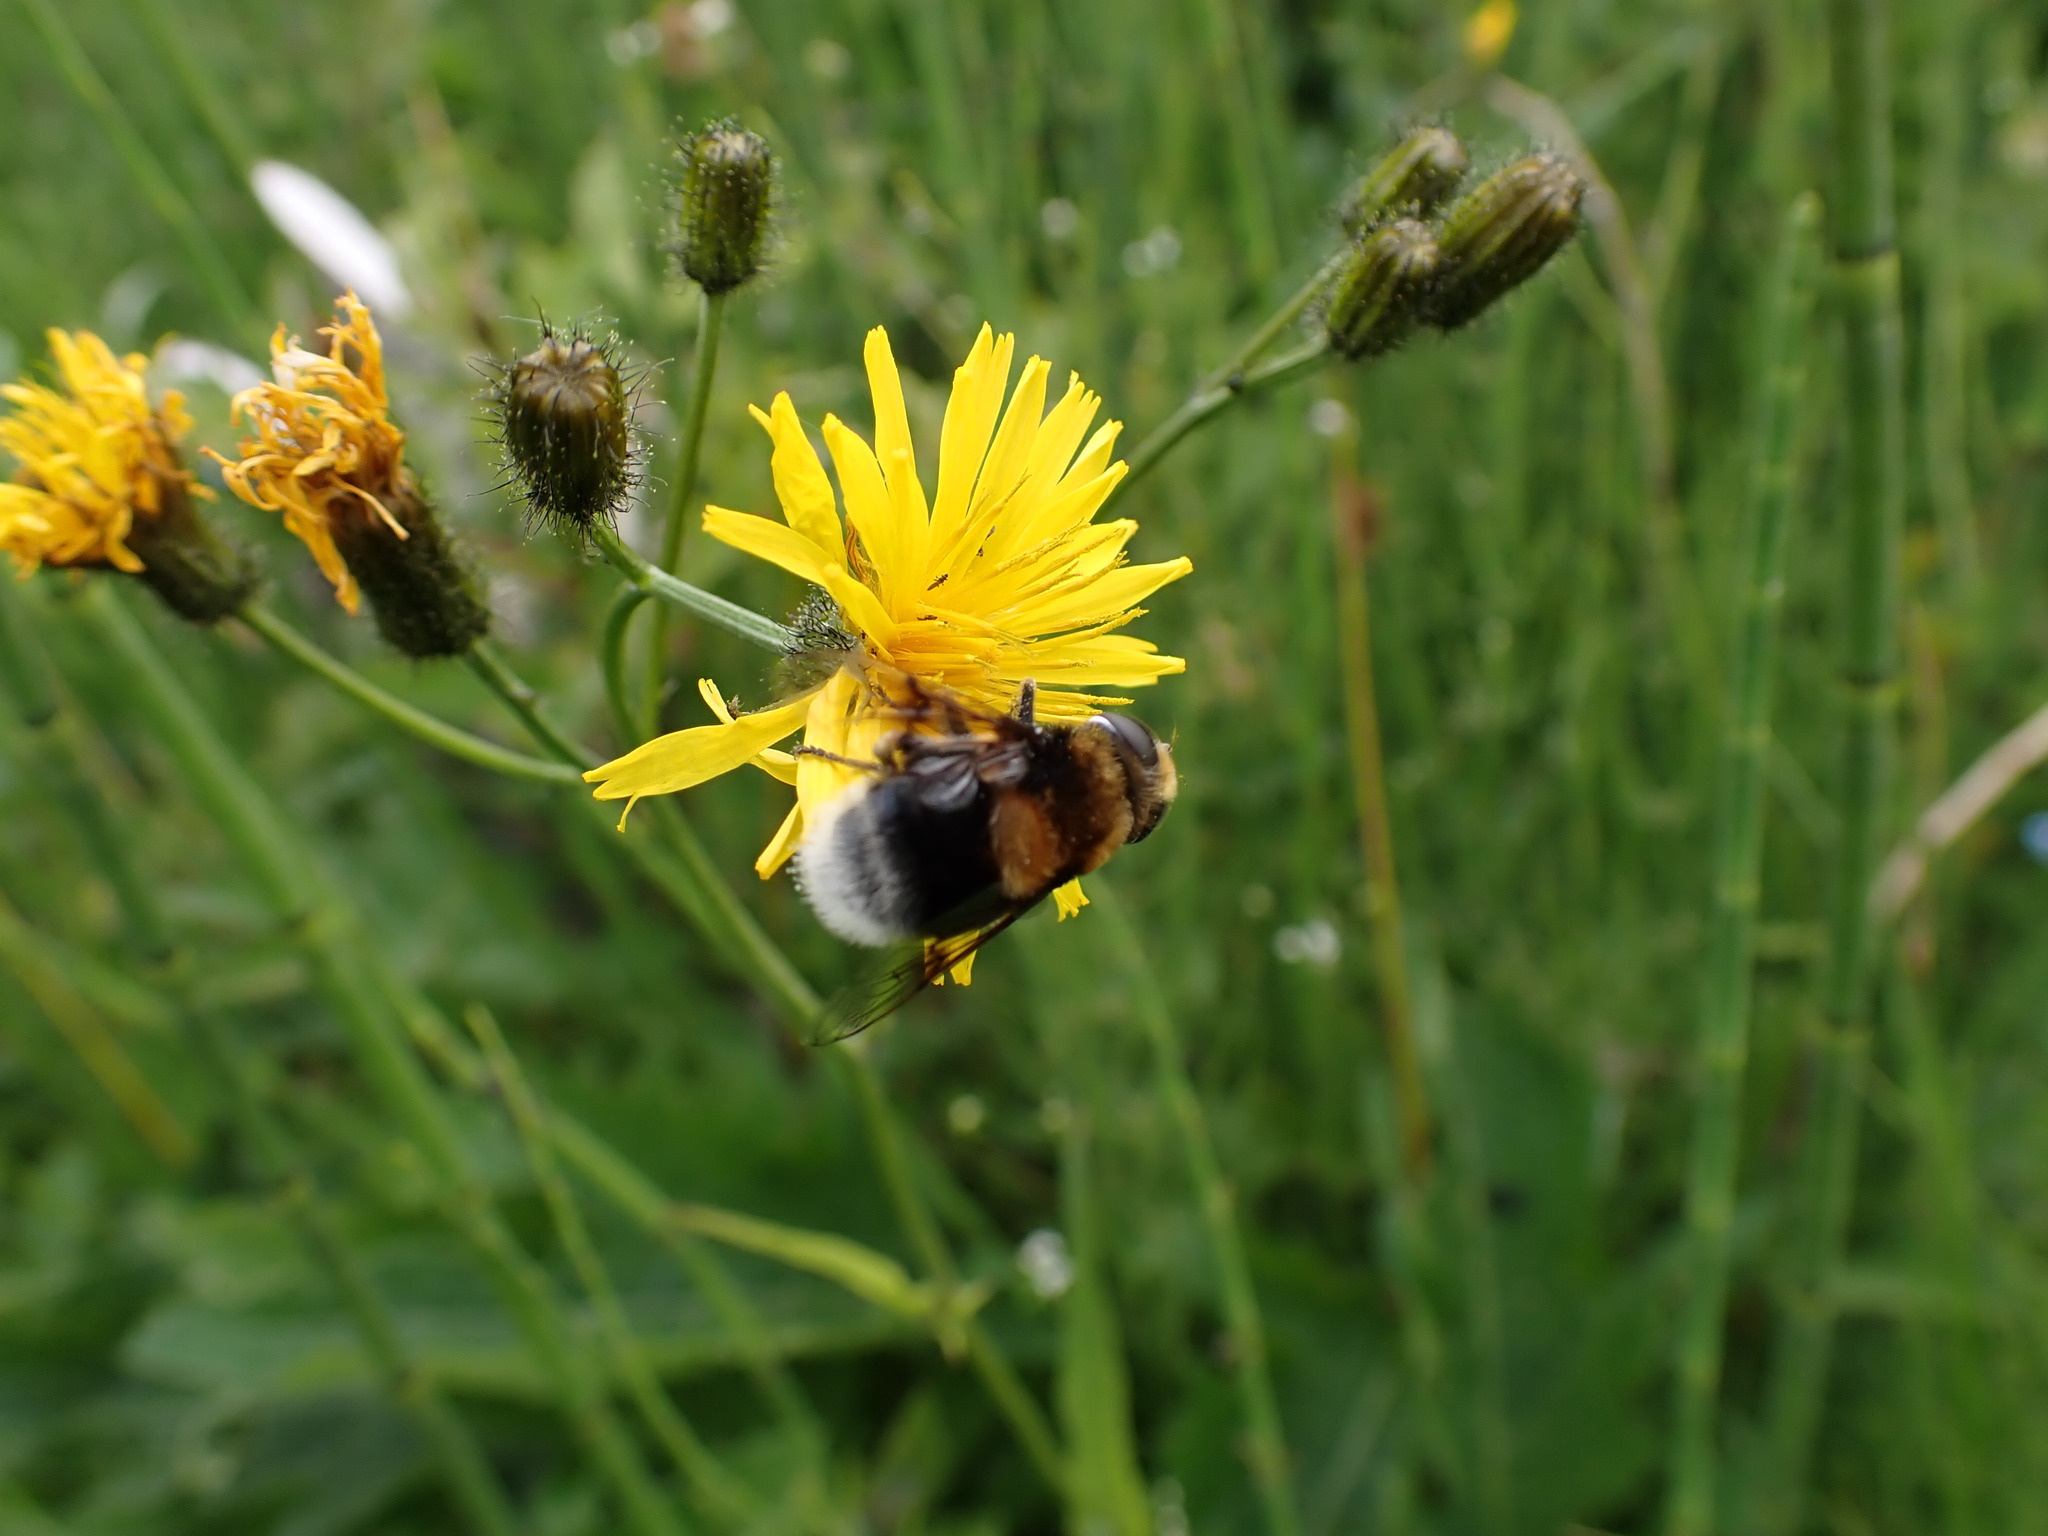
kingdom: Animalia
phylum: Arthropoda
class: Insecta
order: Diptera
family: Syrphidae
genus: Eristalis
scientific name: Eristalis intricaria
